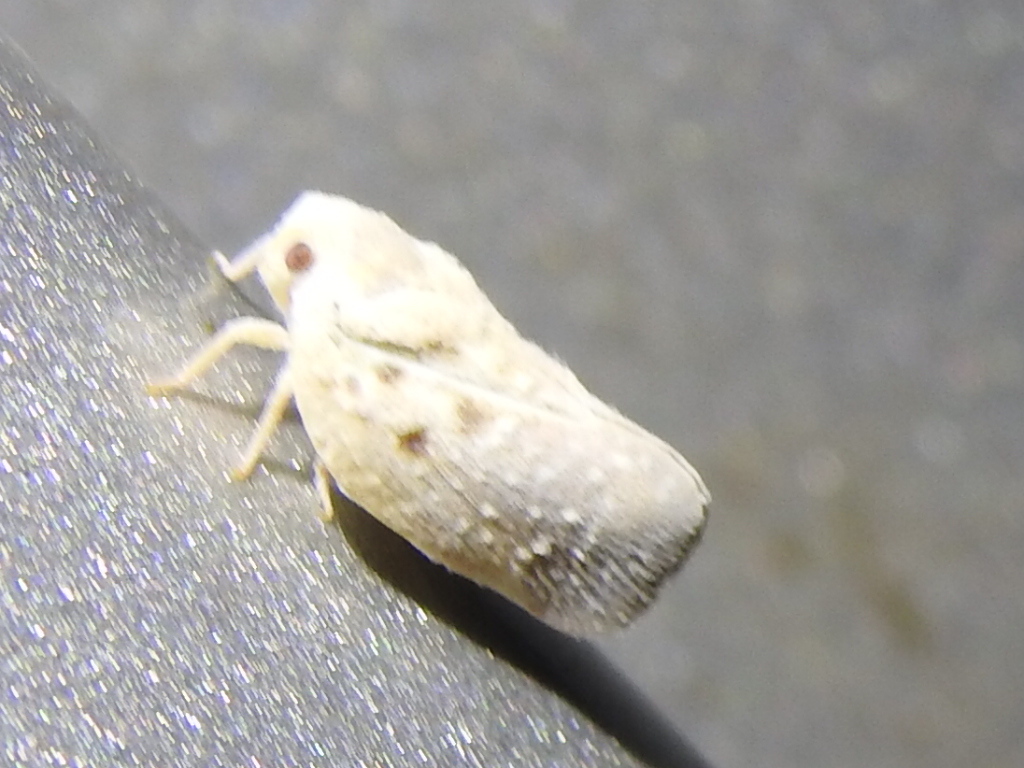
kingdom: Animalia
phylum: Arthropoda
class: Insecta
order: Hemiptera
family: Flatidae
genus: Metcalfa
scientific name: Metcalfa pruinosa
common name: Citrus flatid planthopper
